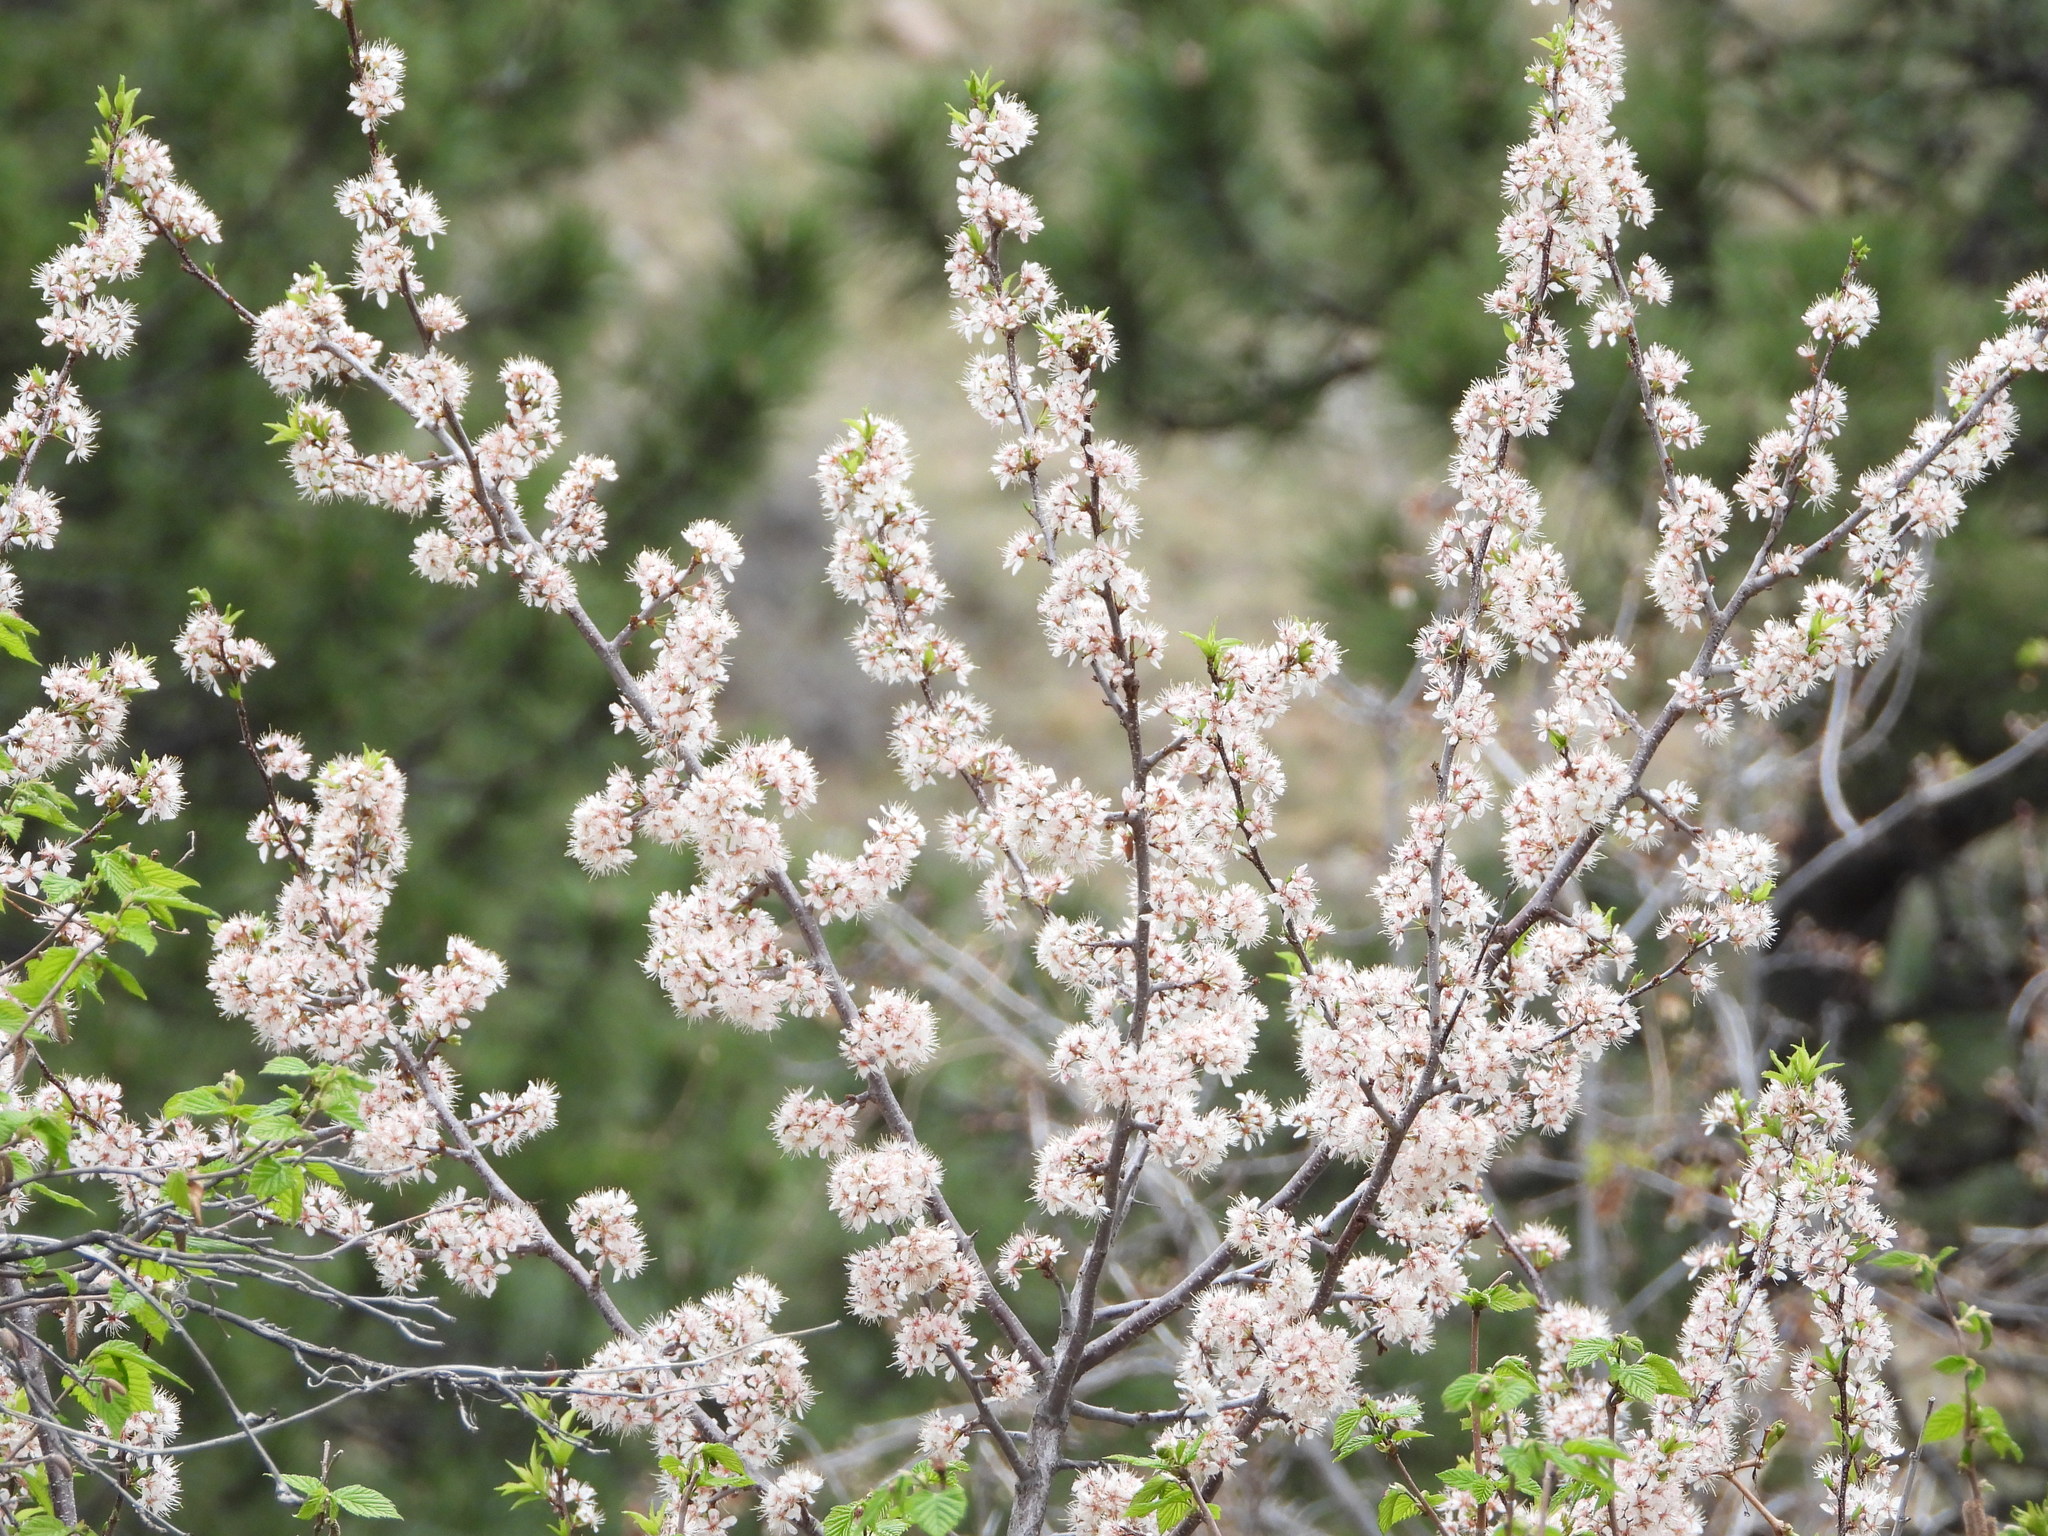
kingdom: Plantae
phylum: Tracheophyta
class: Magnoliopsida
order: Rosales
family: Rosaceae
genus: Prunus
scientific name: Prunus americana
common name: American plum
